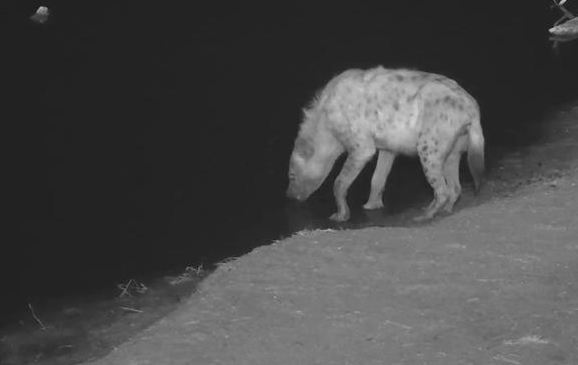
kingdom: Animalia
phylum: Chordata
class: Mammalia
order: Carnivora
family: Hyaenidae
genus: Crocuta
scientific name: Crocuta crocuta
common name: Spotted hyaena
